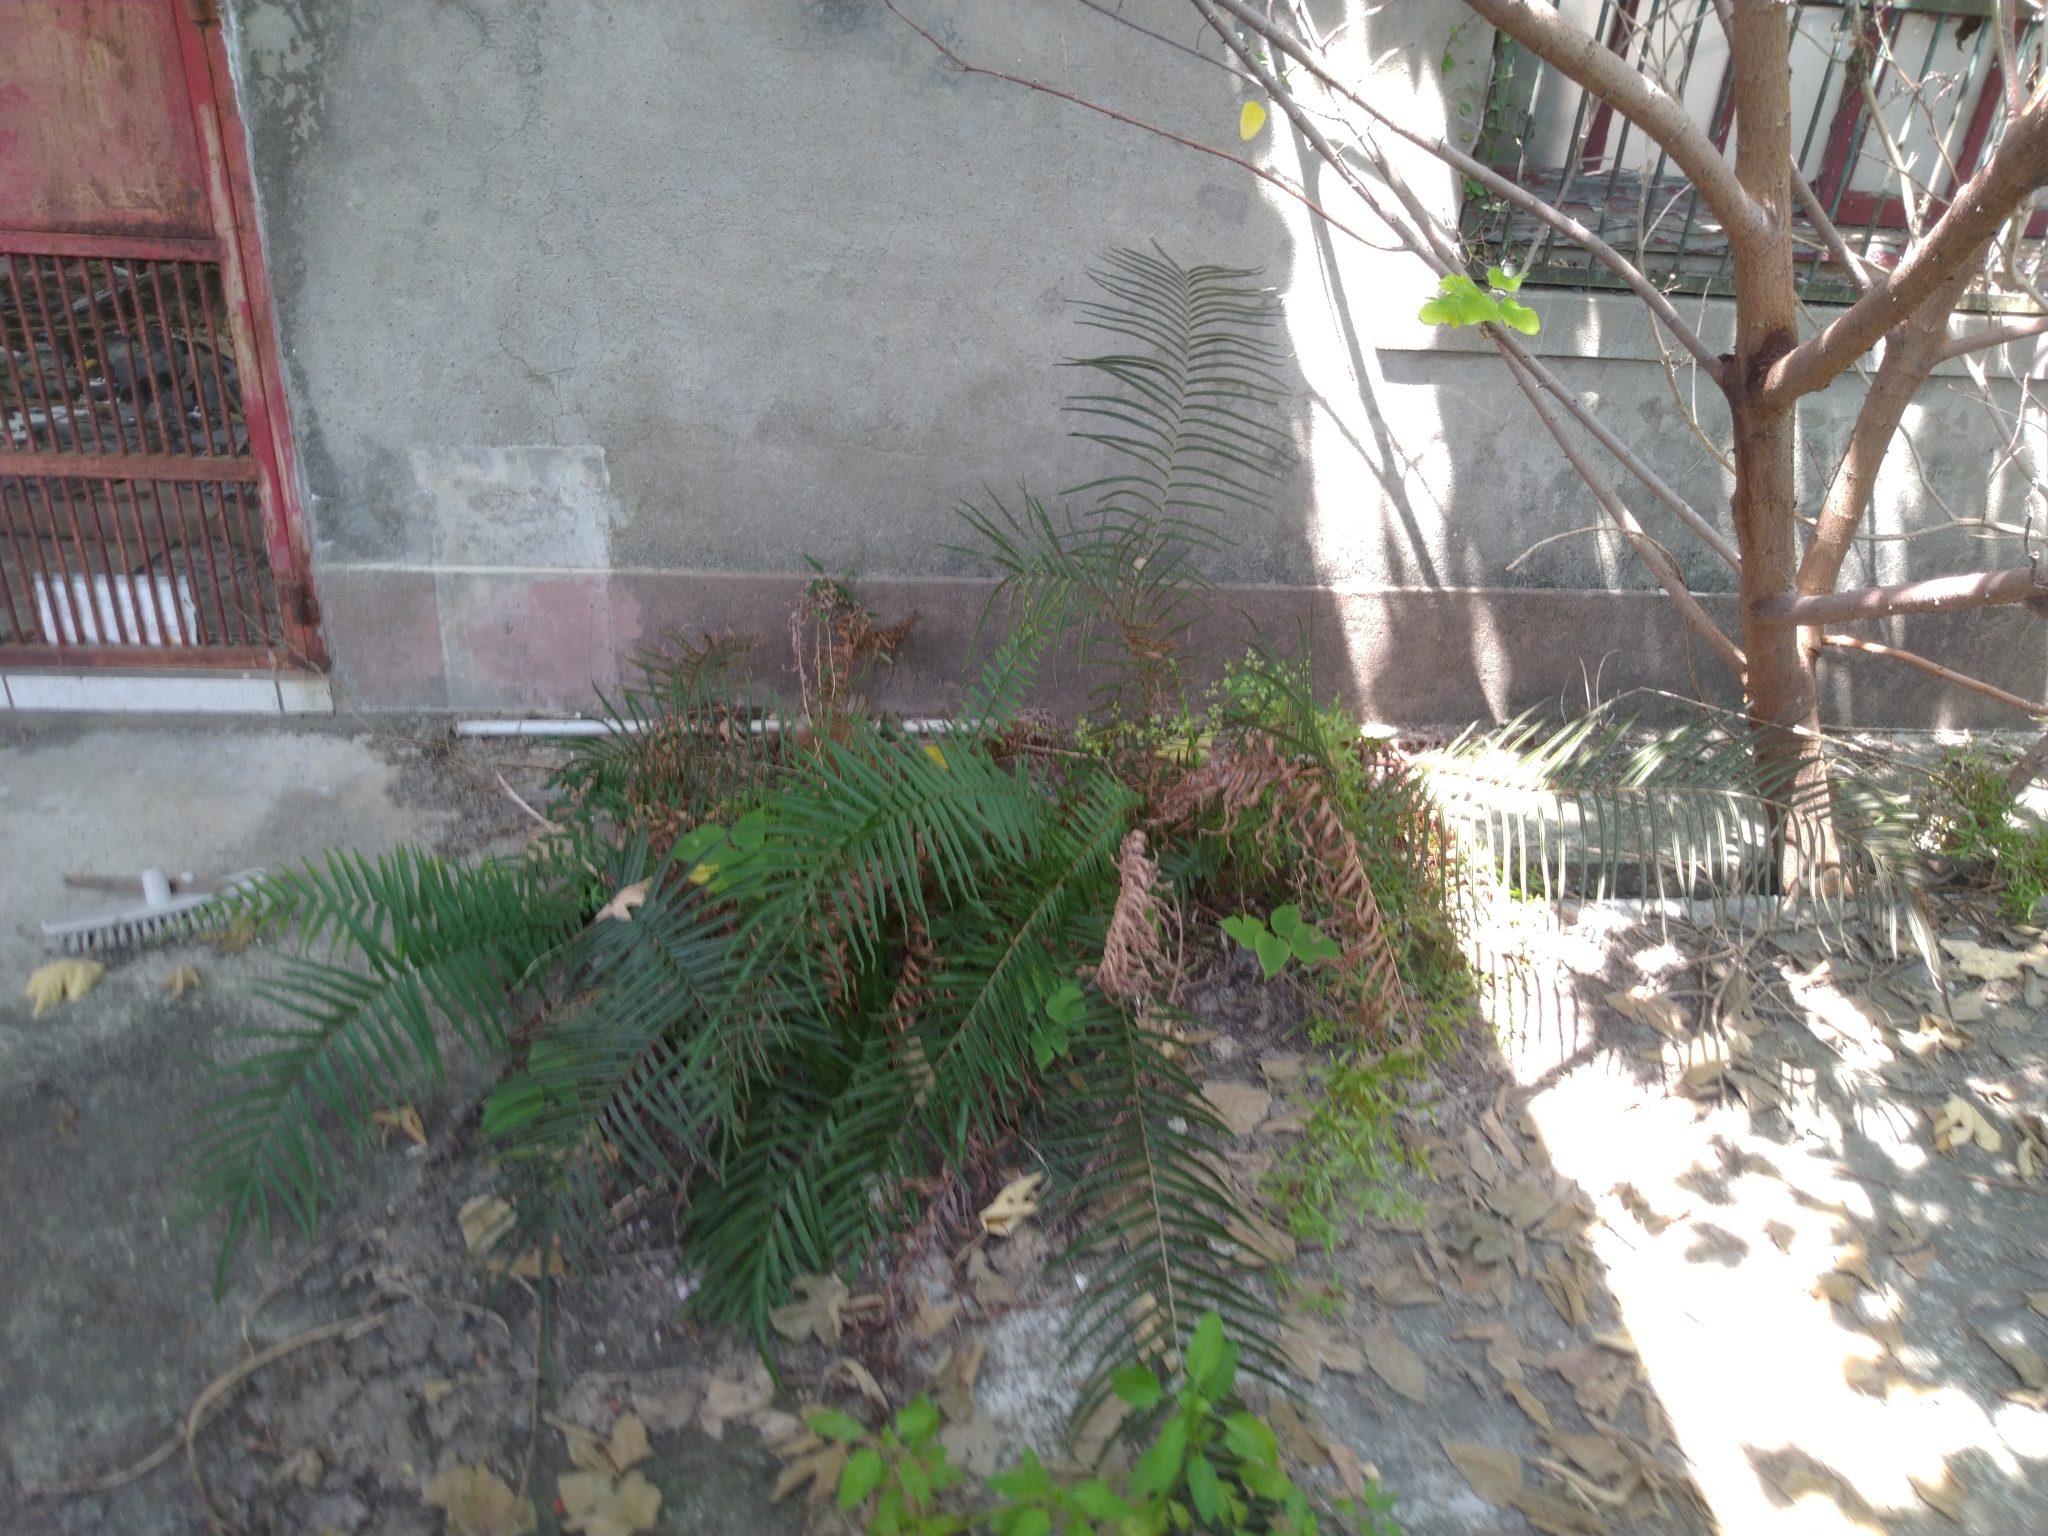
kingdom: Plantae
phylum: Tracheophyta
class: Polypodiopsida
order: Polypodiales
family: Pteridaceae
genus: Pteris
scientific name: Pteris vittata
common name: Ladder brake
